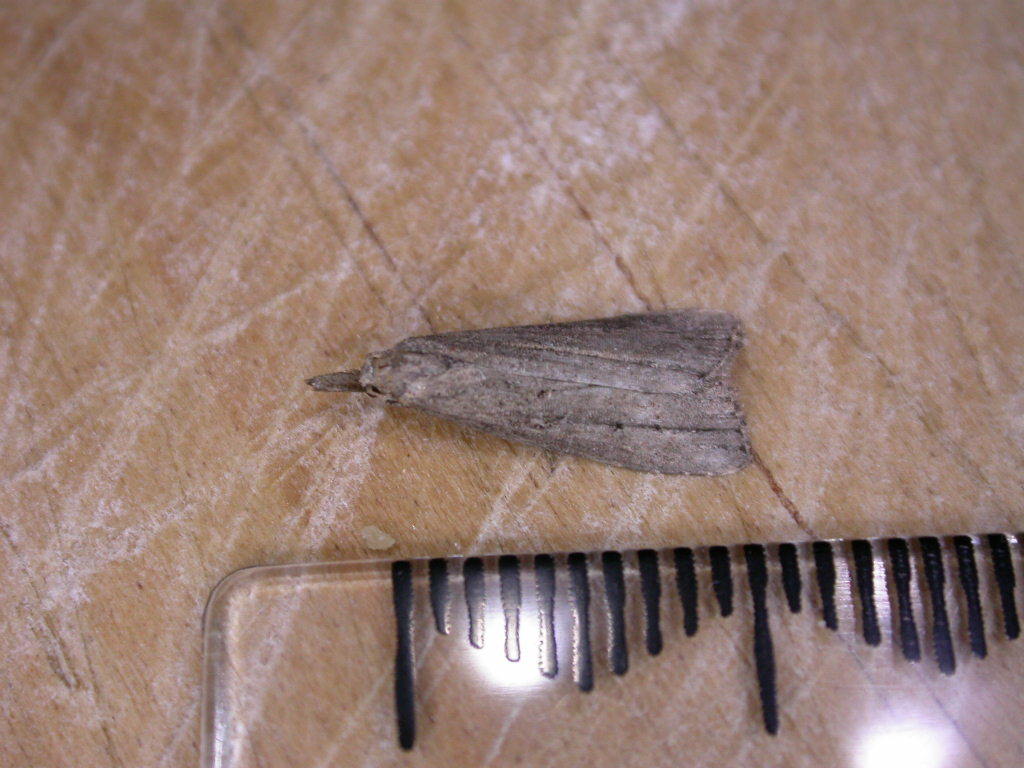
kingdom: Animalia
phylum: Arthropoda
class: Insecta
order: Lepidoptera
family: Erebidae
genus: Schrankia
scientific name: Schrankia costaestrigalis
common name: Pinion-streaked snout
